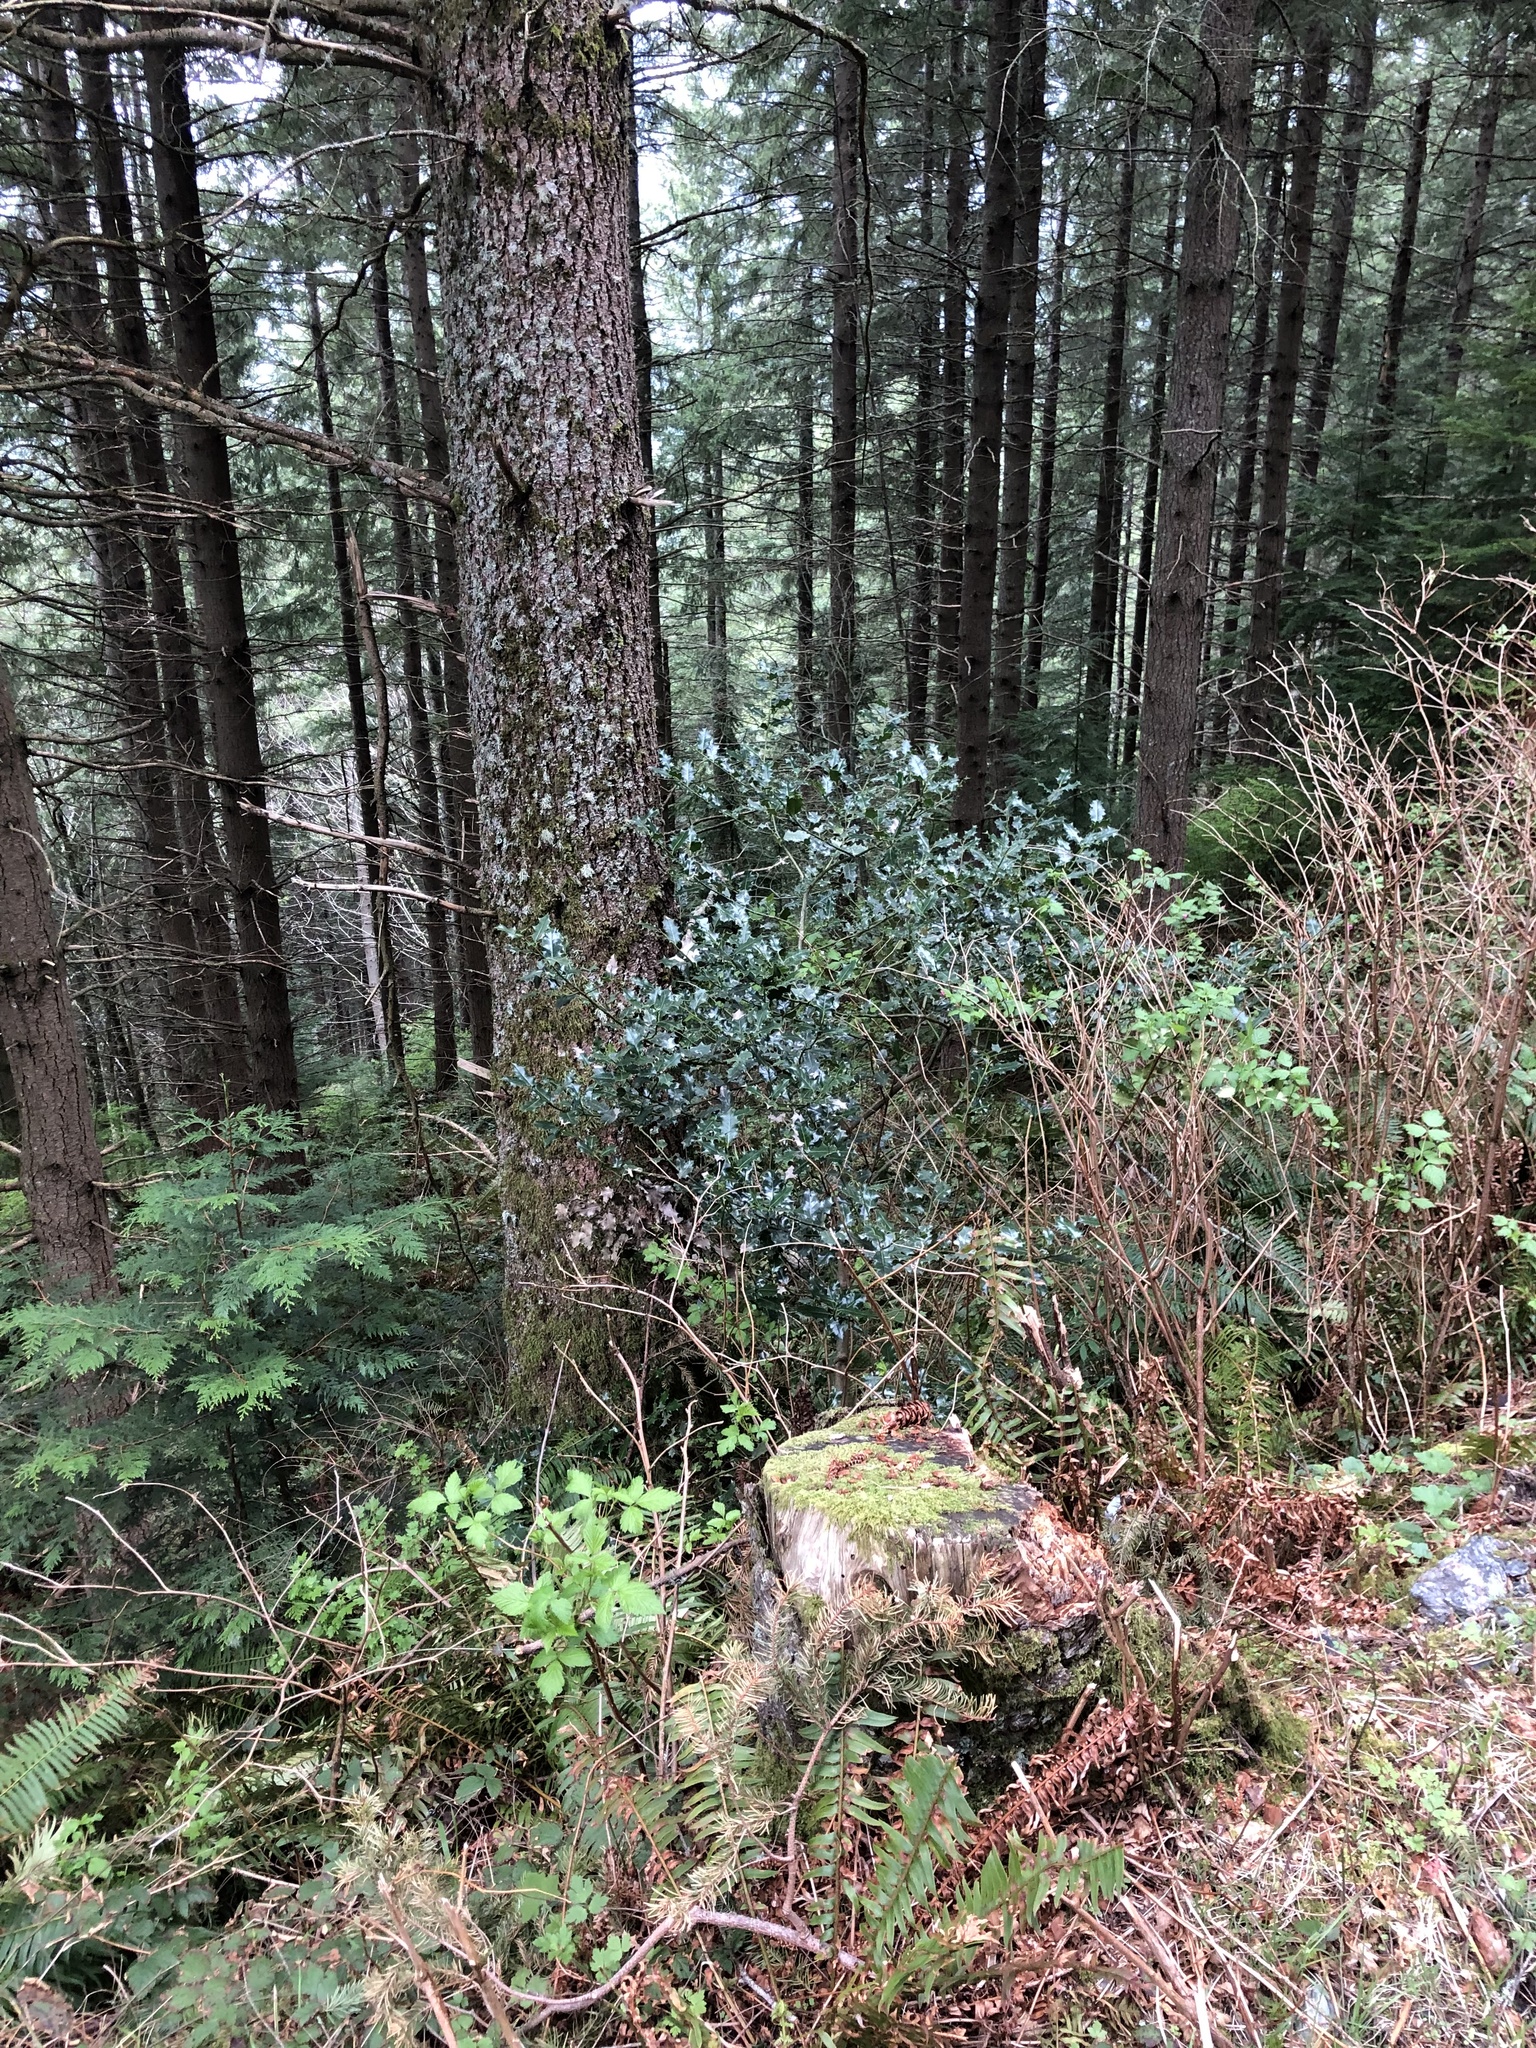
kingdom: Plantae
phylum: Tracheophyta
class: Magnoliopsida
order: Aquifoliales
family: Aquifoliaceae
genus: Ilex
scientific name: Ilex aquifolium
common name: English holly
